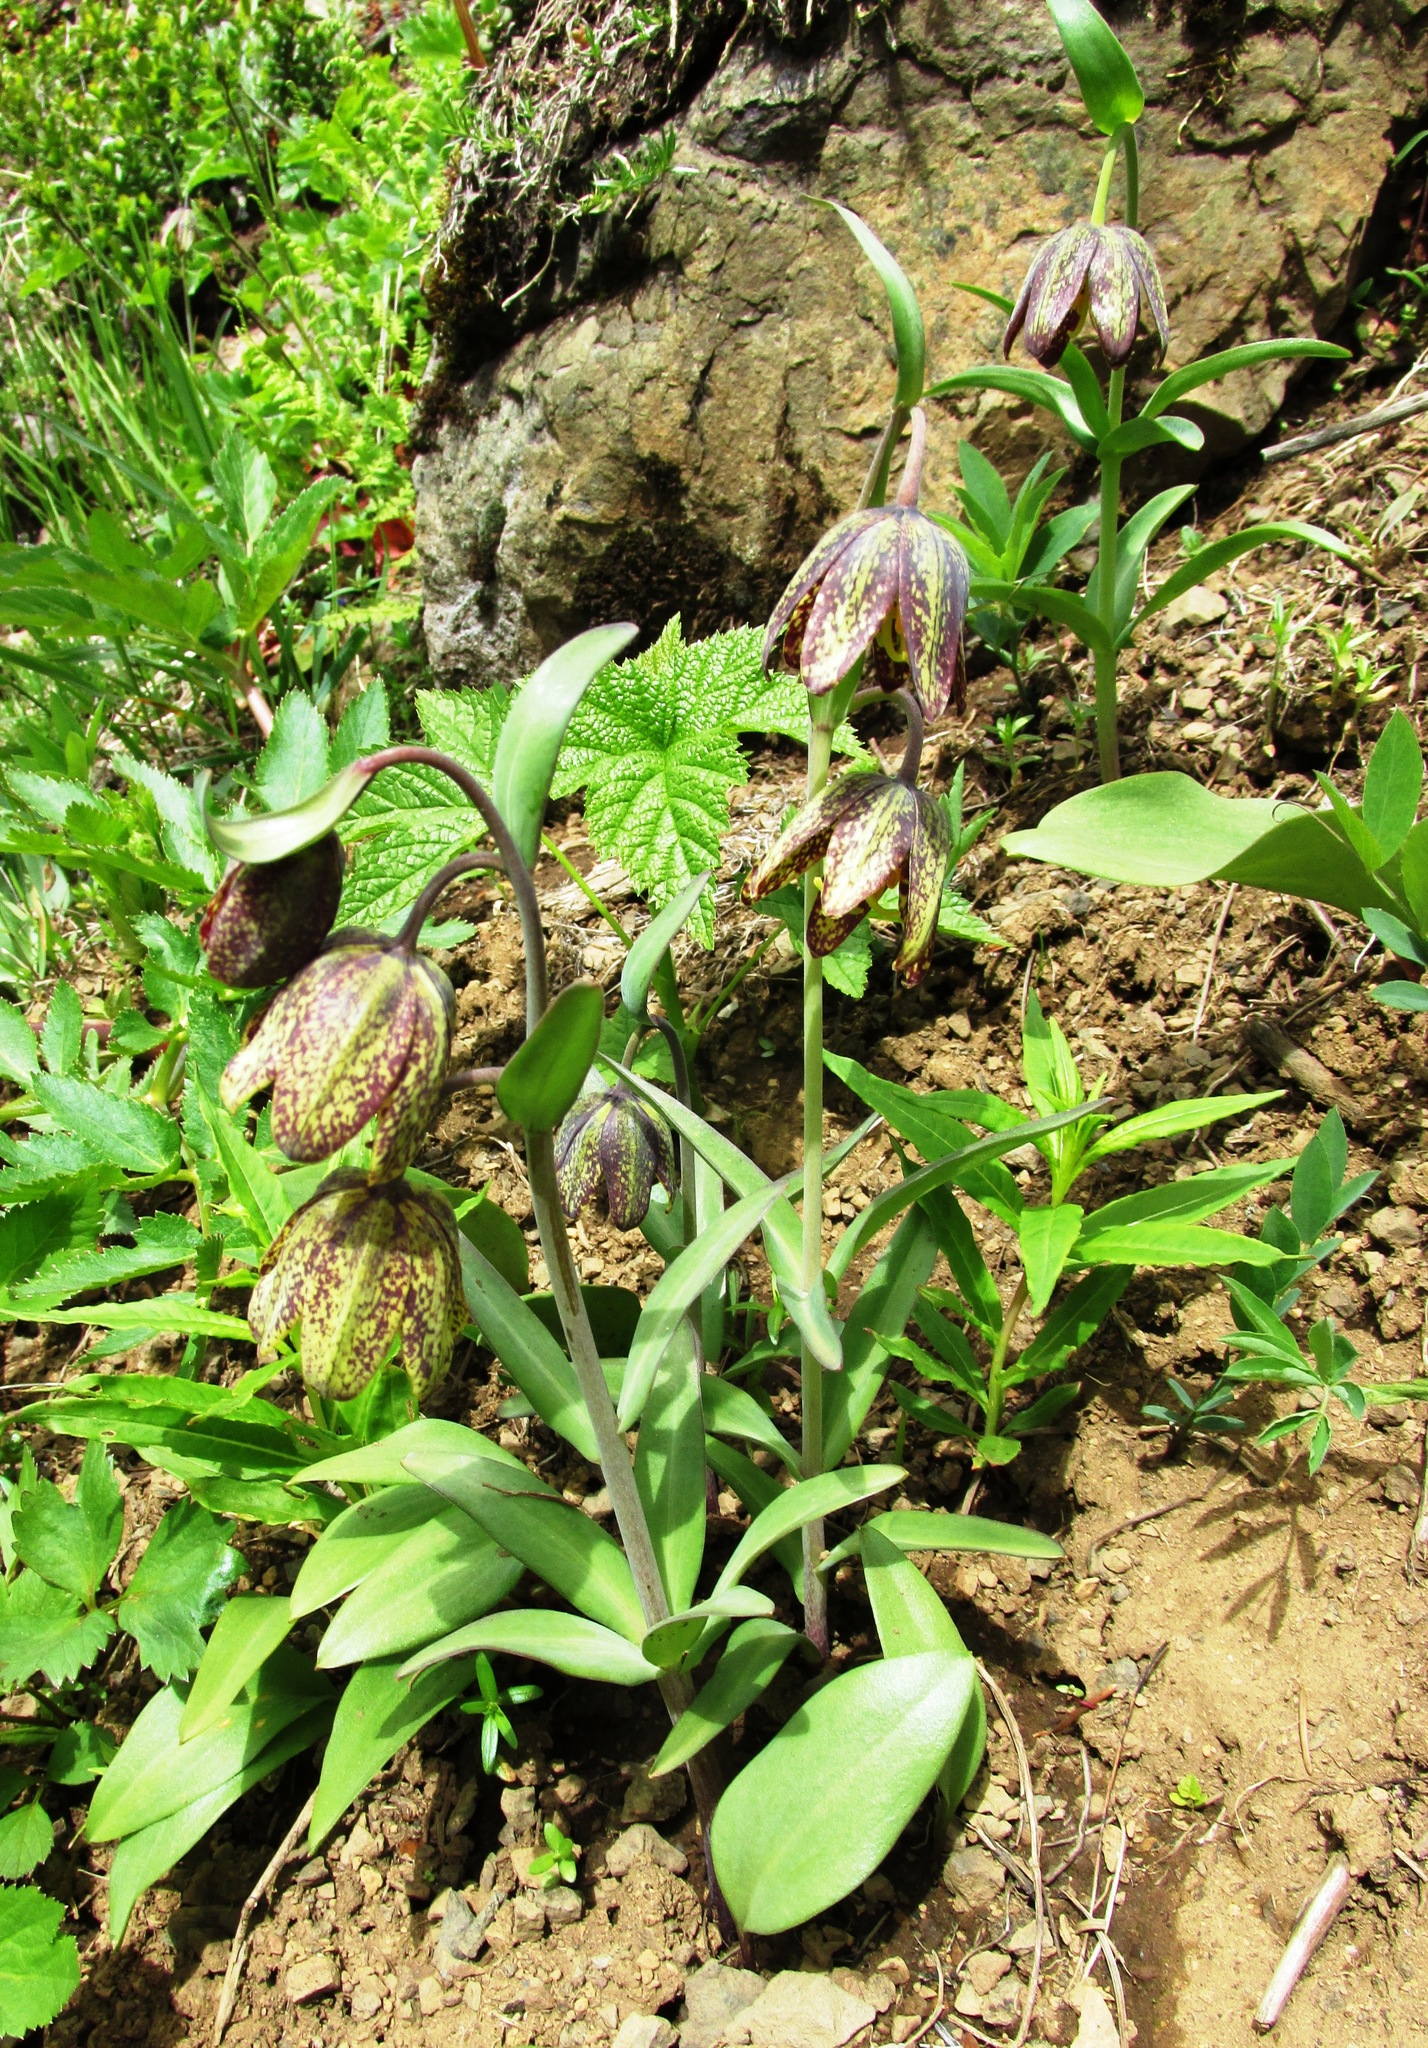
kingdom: Plantae
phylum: Tracheophyta
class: Liliopsida
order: Liliales
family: Liliaceae
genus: Fritillaria
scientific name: Fritillaria affinis
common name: Ojai fritillary
